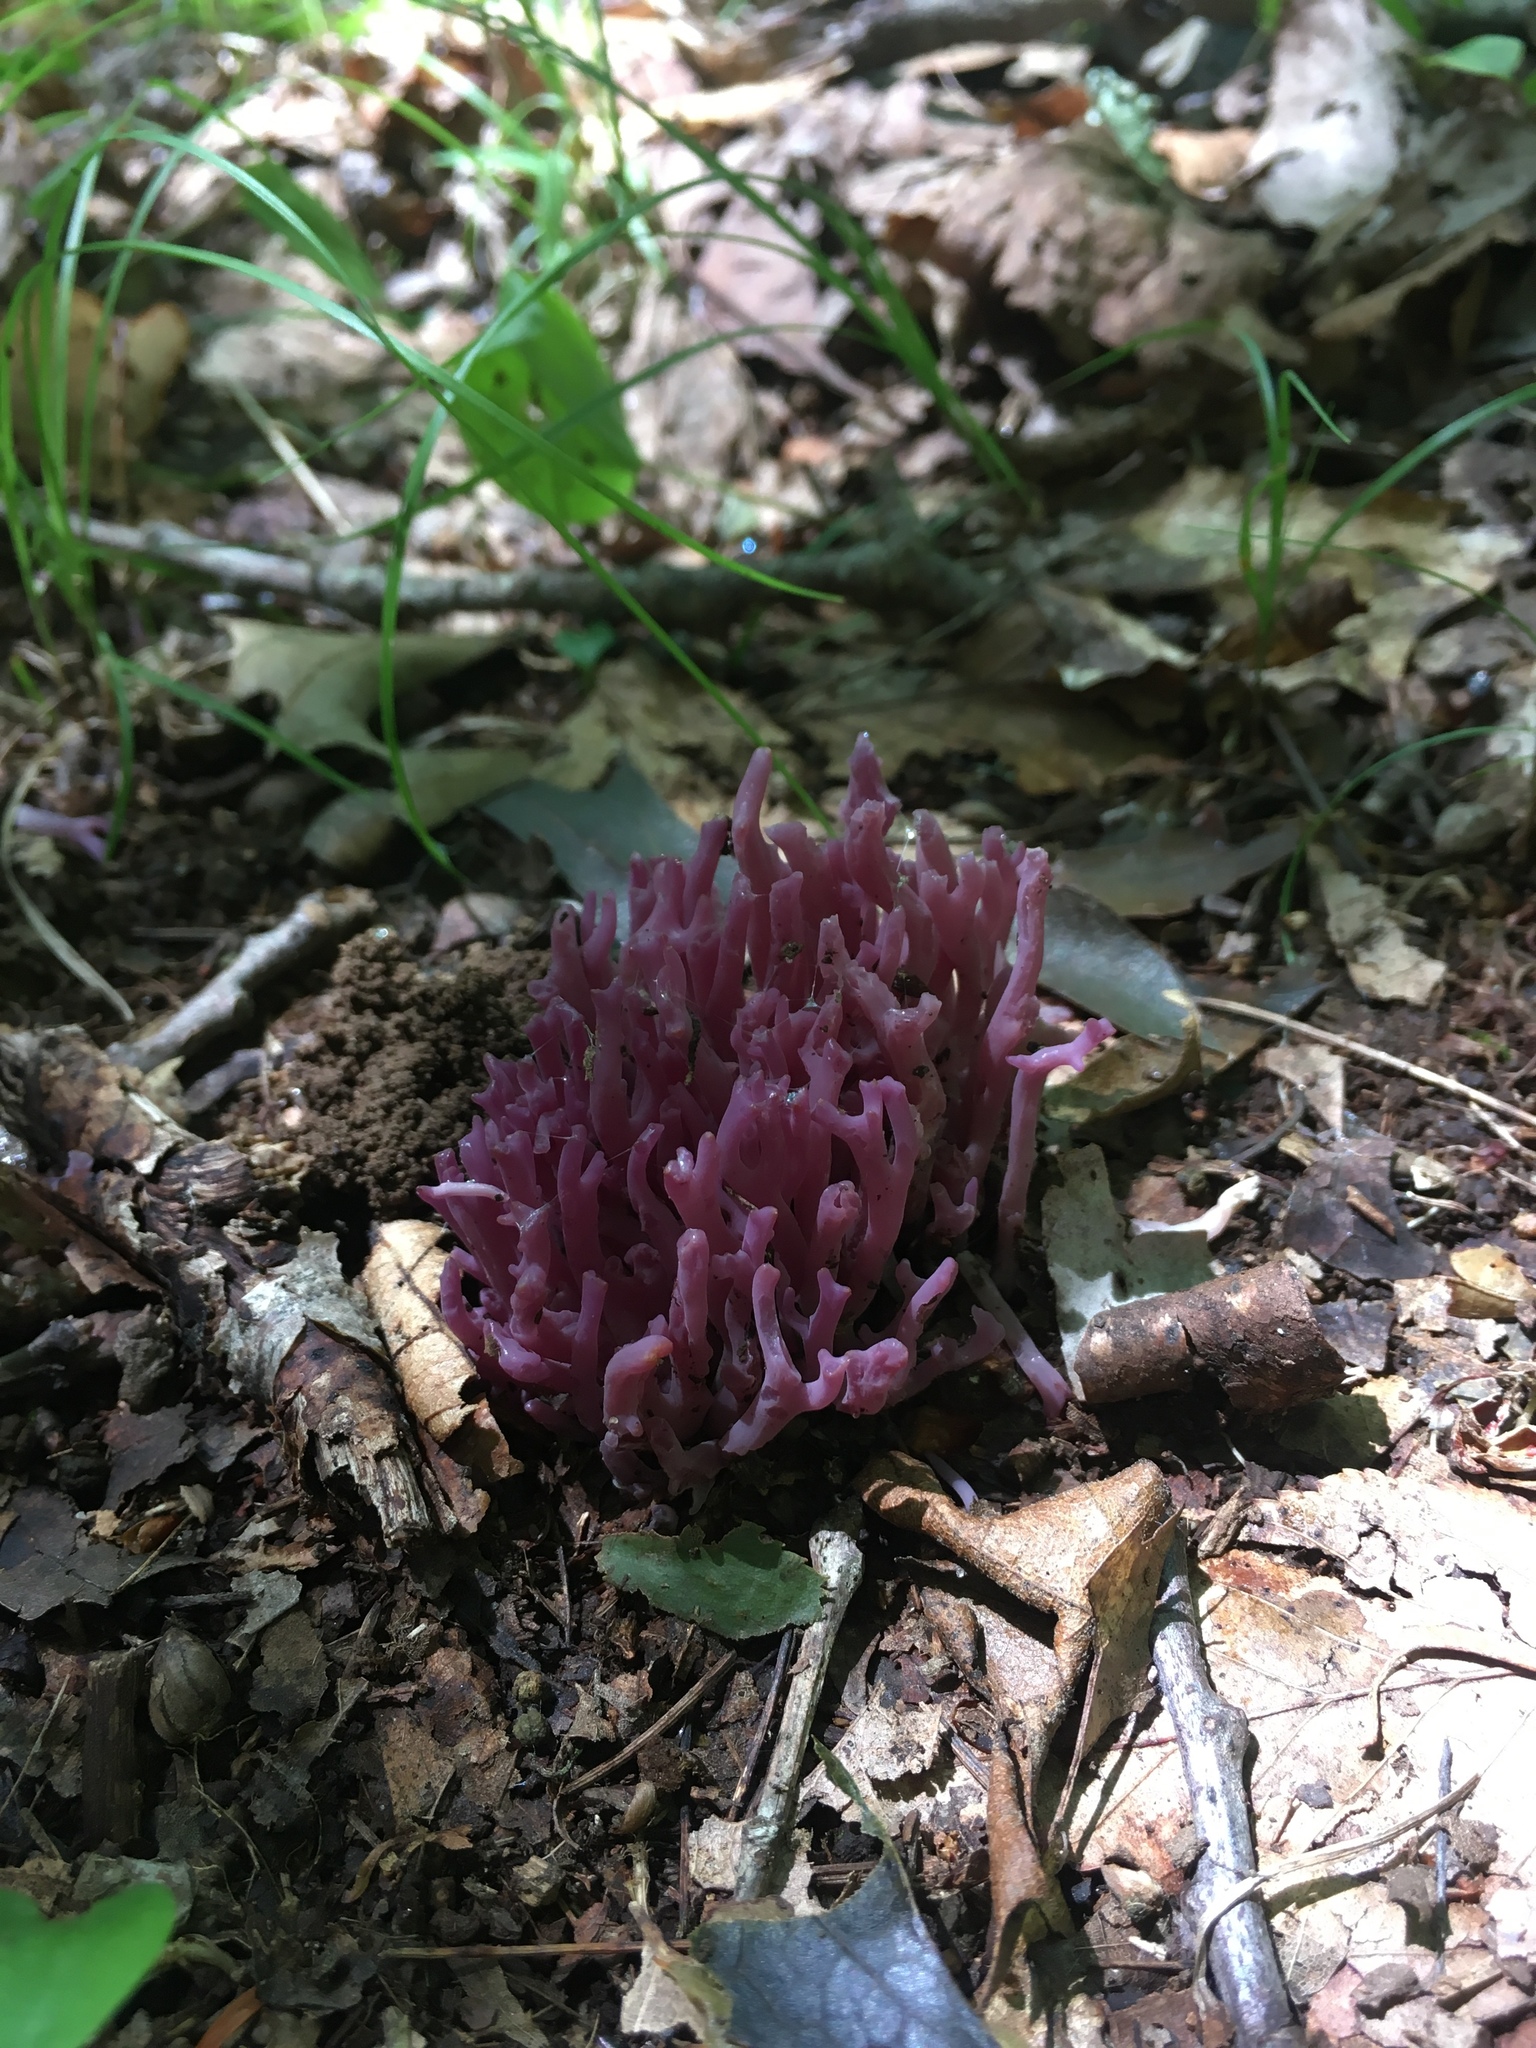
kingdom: Fungi
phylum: Basidiomycota
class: Agaricomycetes
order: Agaricales
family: Clavariaceae
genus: Clavaria
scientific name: Clavaria zollingeri
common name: Violet coral
